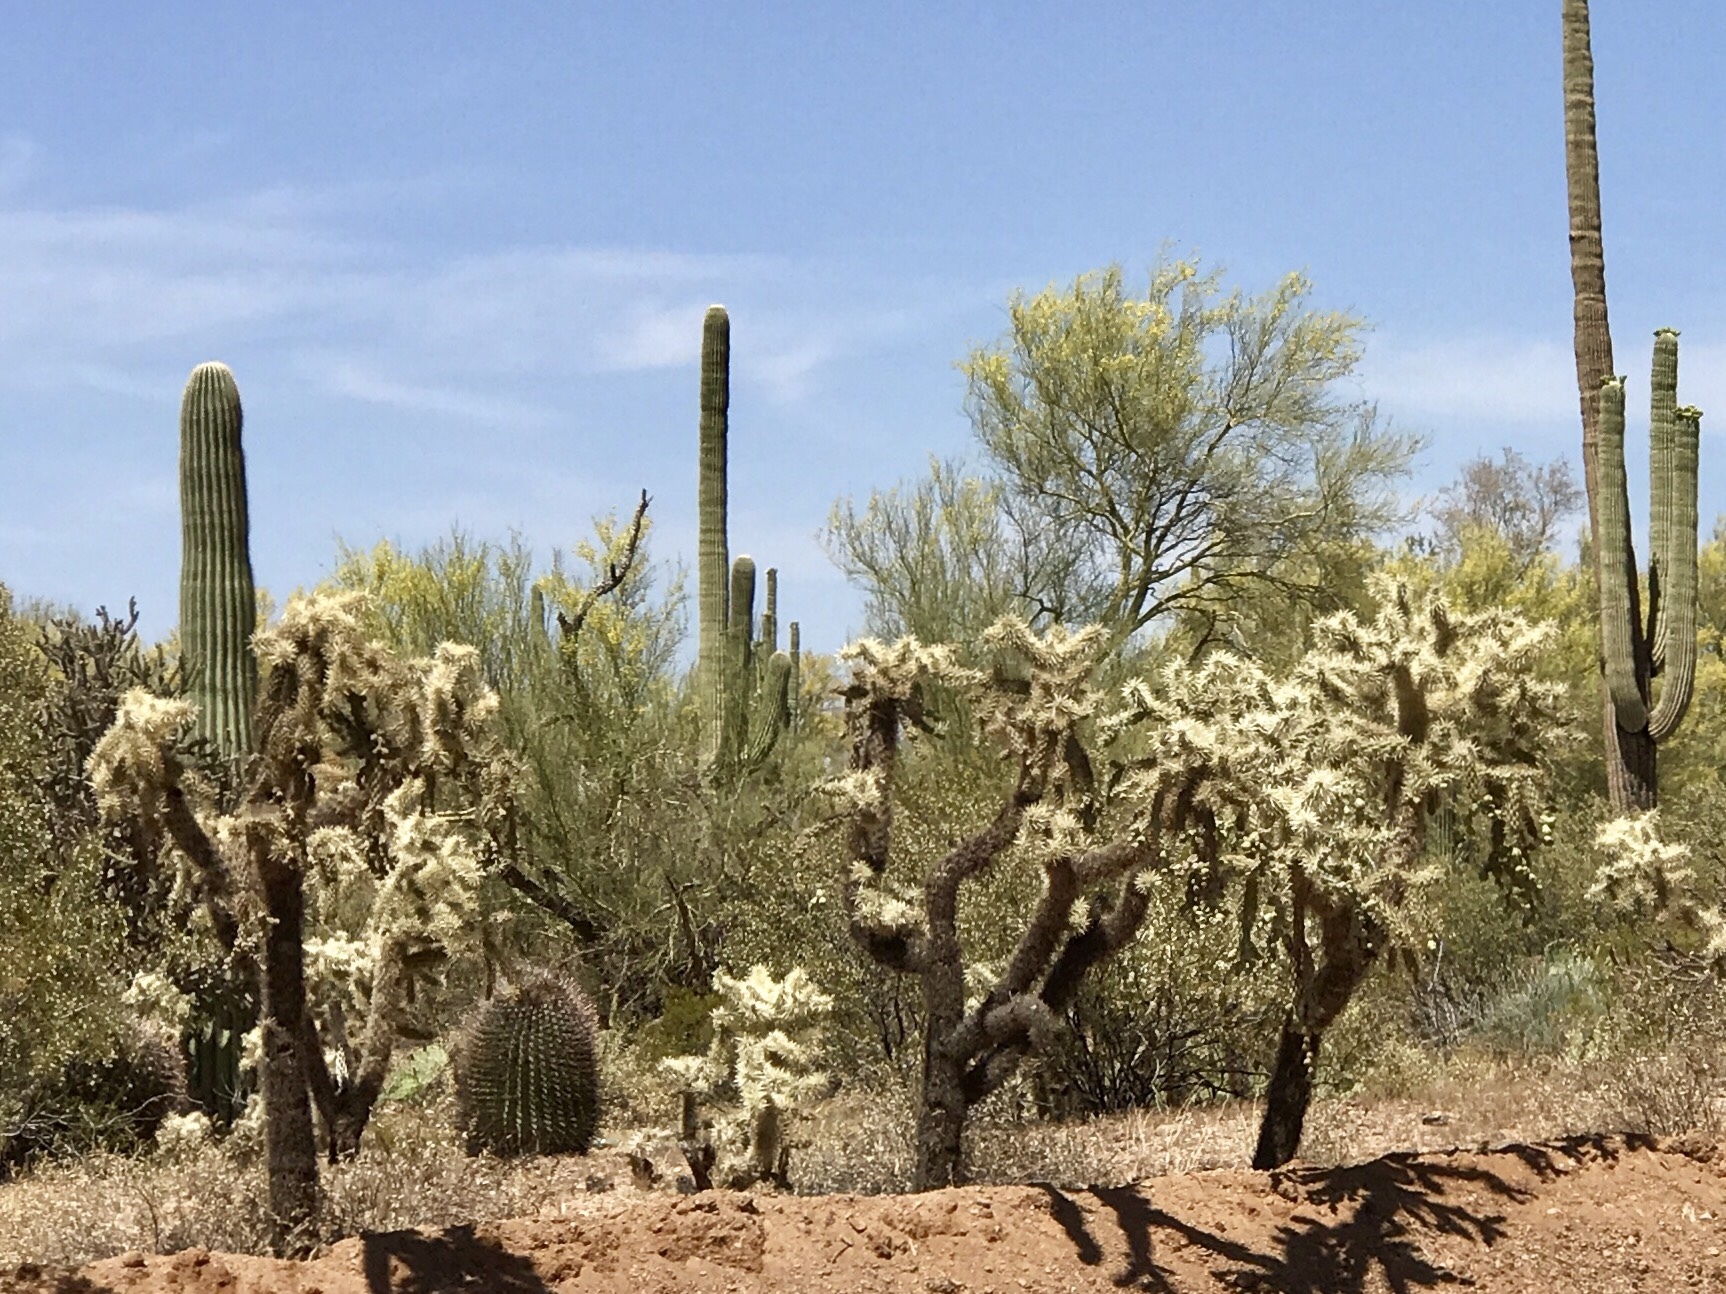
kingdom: Plantae
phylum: Tracheophyta
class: Magnoliopsida
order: Caryophyllales
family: Cactaceae
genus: Cylindropuntia
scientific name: Cylindropuntia fulgida
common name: Jumping cholla
